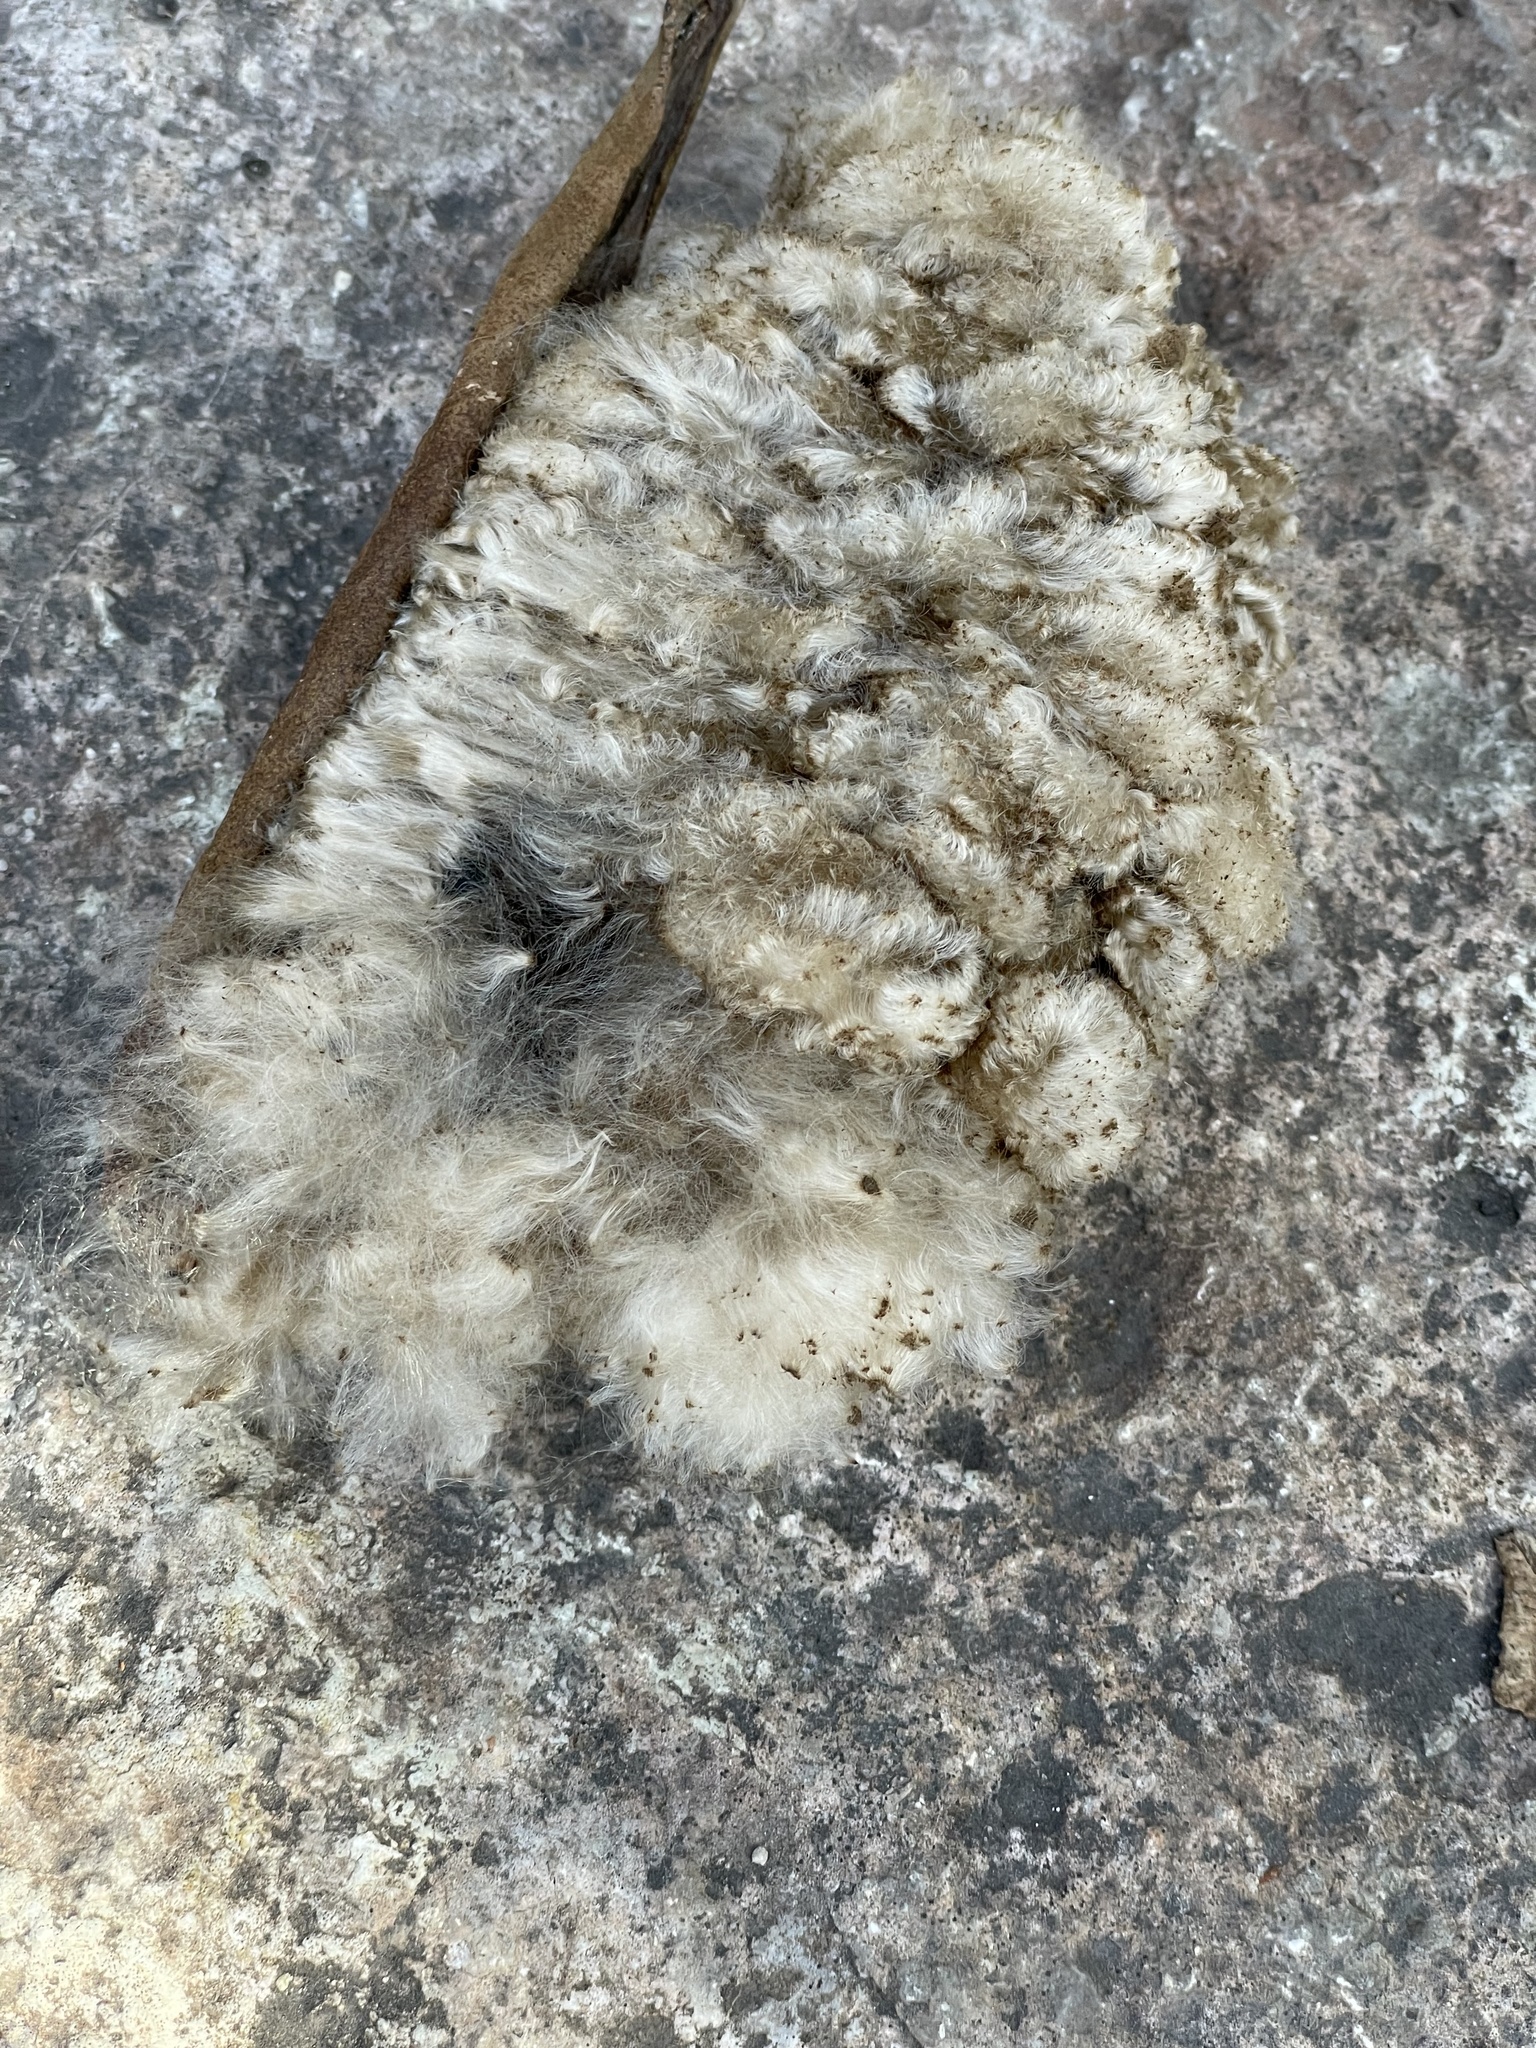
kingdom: Plantae
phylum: Tracheophyta
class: Magnoliopsida
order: Malvales
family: Malvaceae
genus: Ceiba
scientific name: Ceiba pentandra
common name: Kapok
